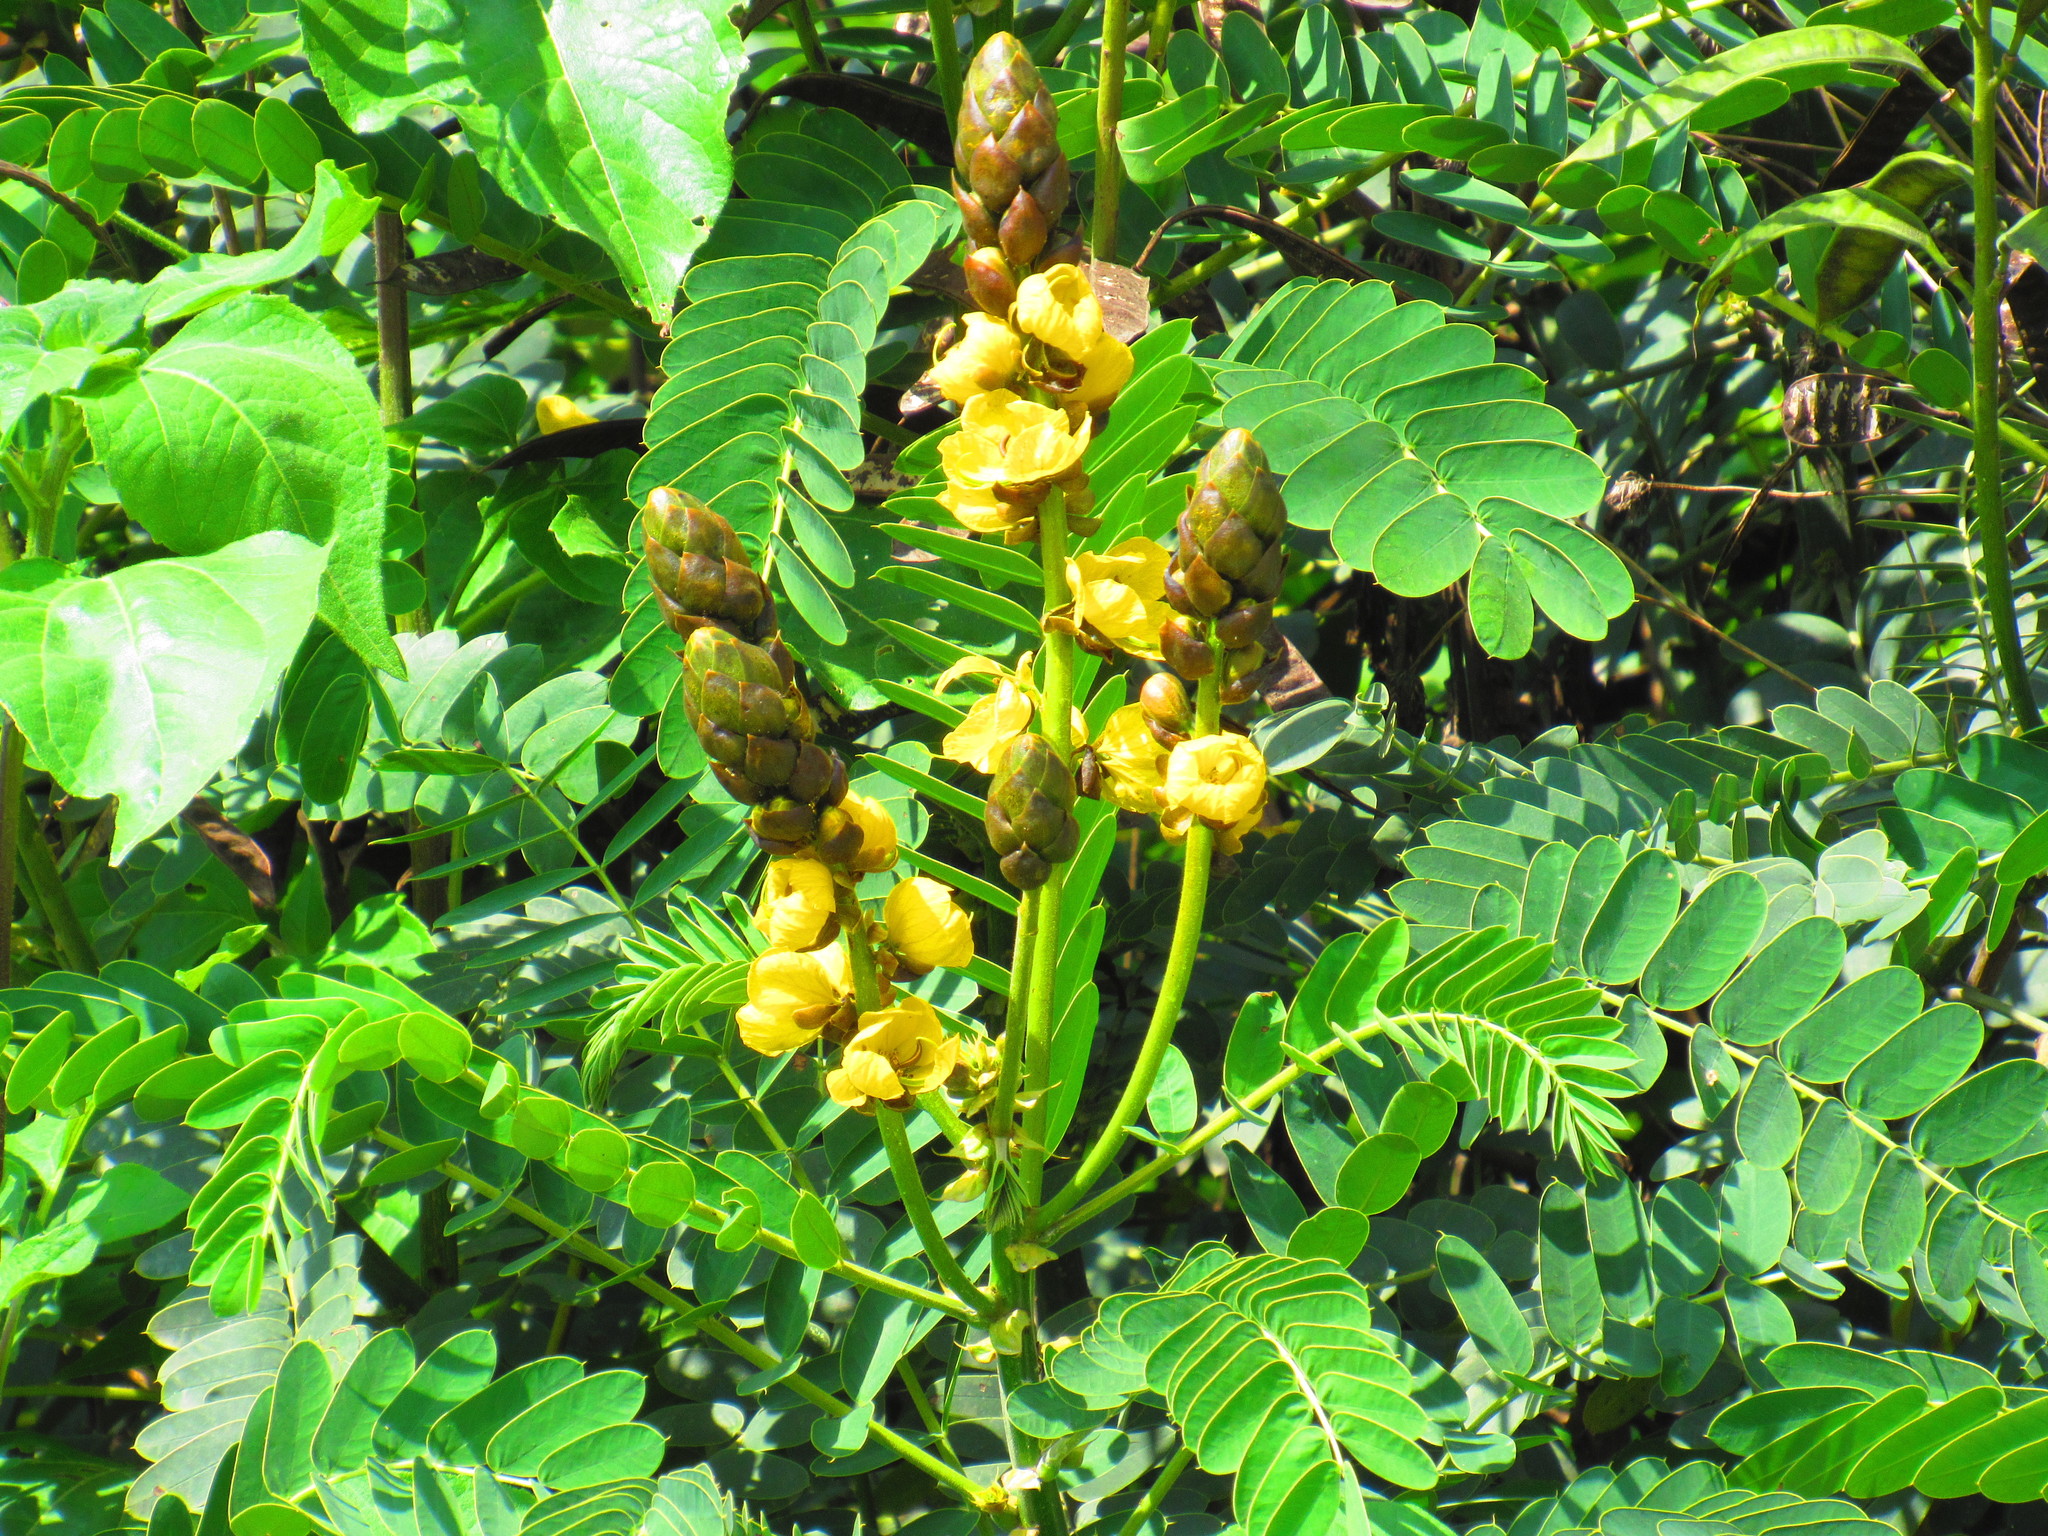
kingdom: Plantae
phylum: Tracheophyta
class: Magnoliopsida
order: Fabales
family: Fabaceae
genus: Senna
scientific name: Senna didymobotrya
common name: African senna
